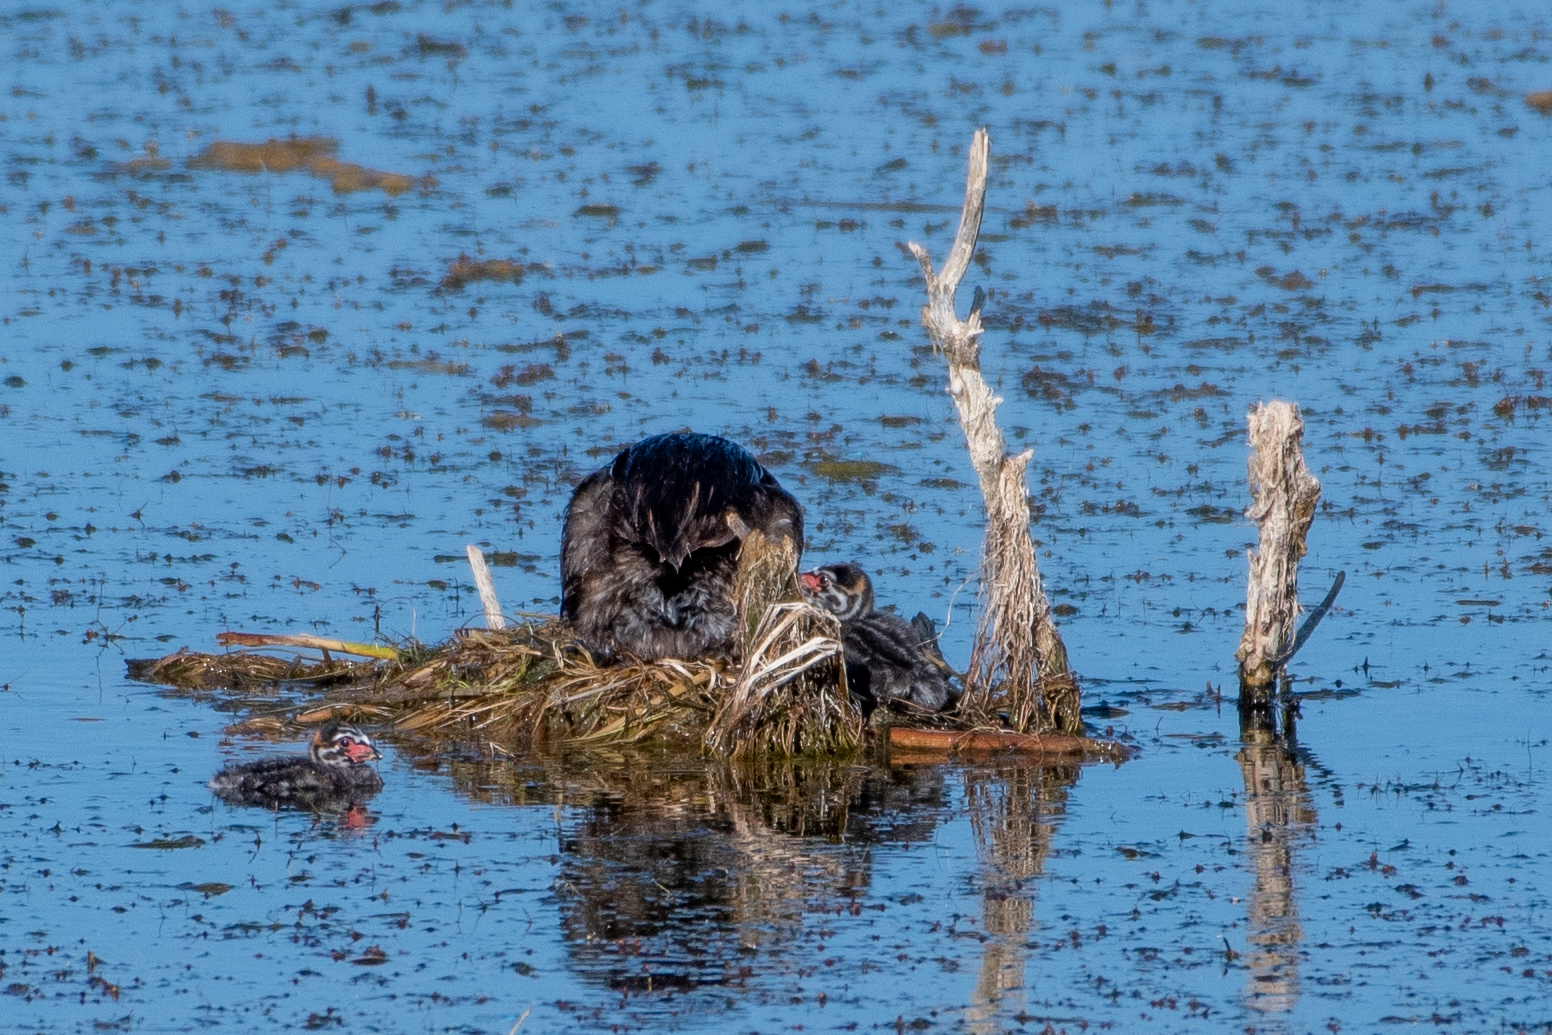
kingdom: Animalia
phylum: Chordata
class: Aves
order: Podicipediformes
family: Podicipedidae
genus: Podilymbus
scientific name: Podilymbus podiceps
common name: Pied-billed grebe
